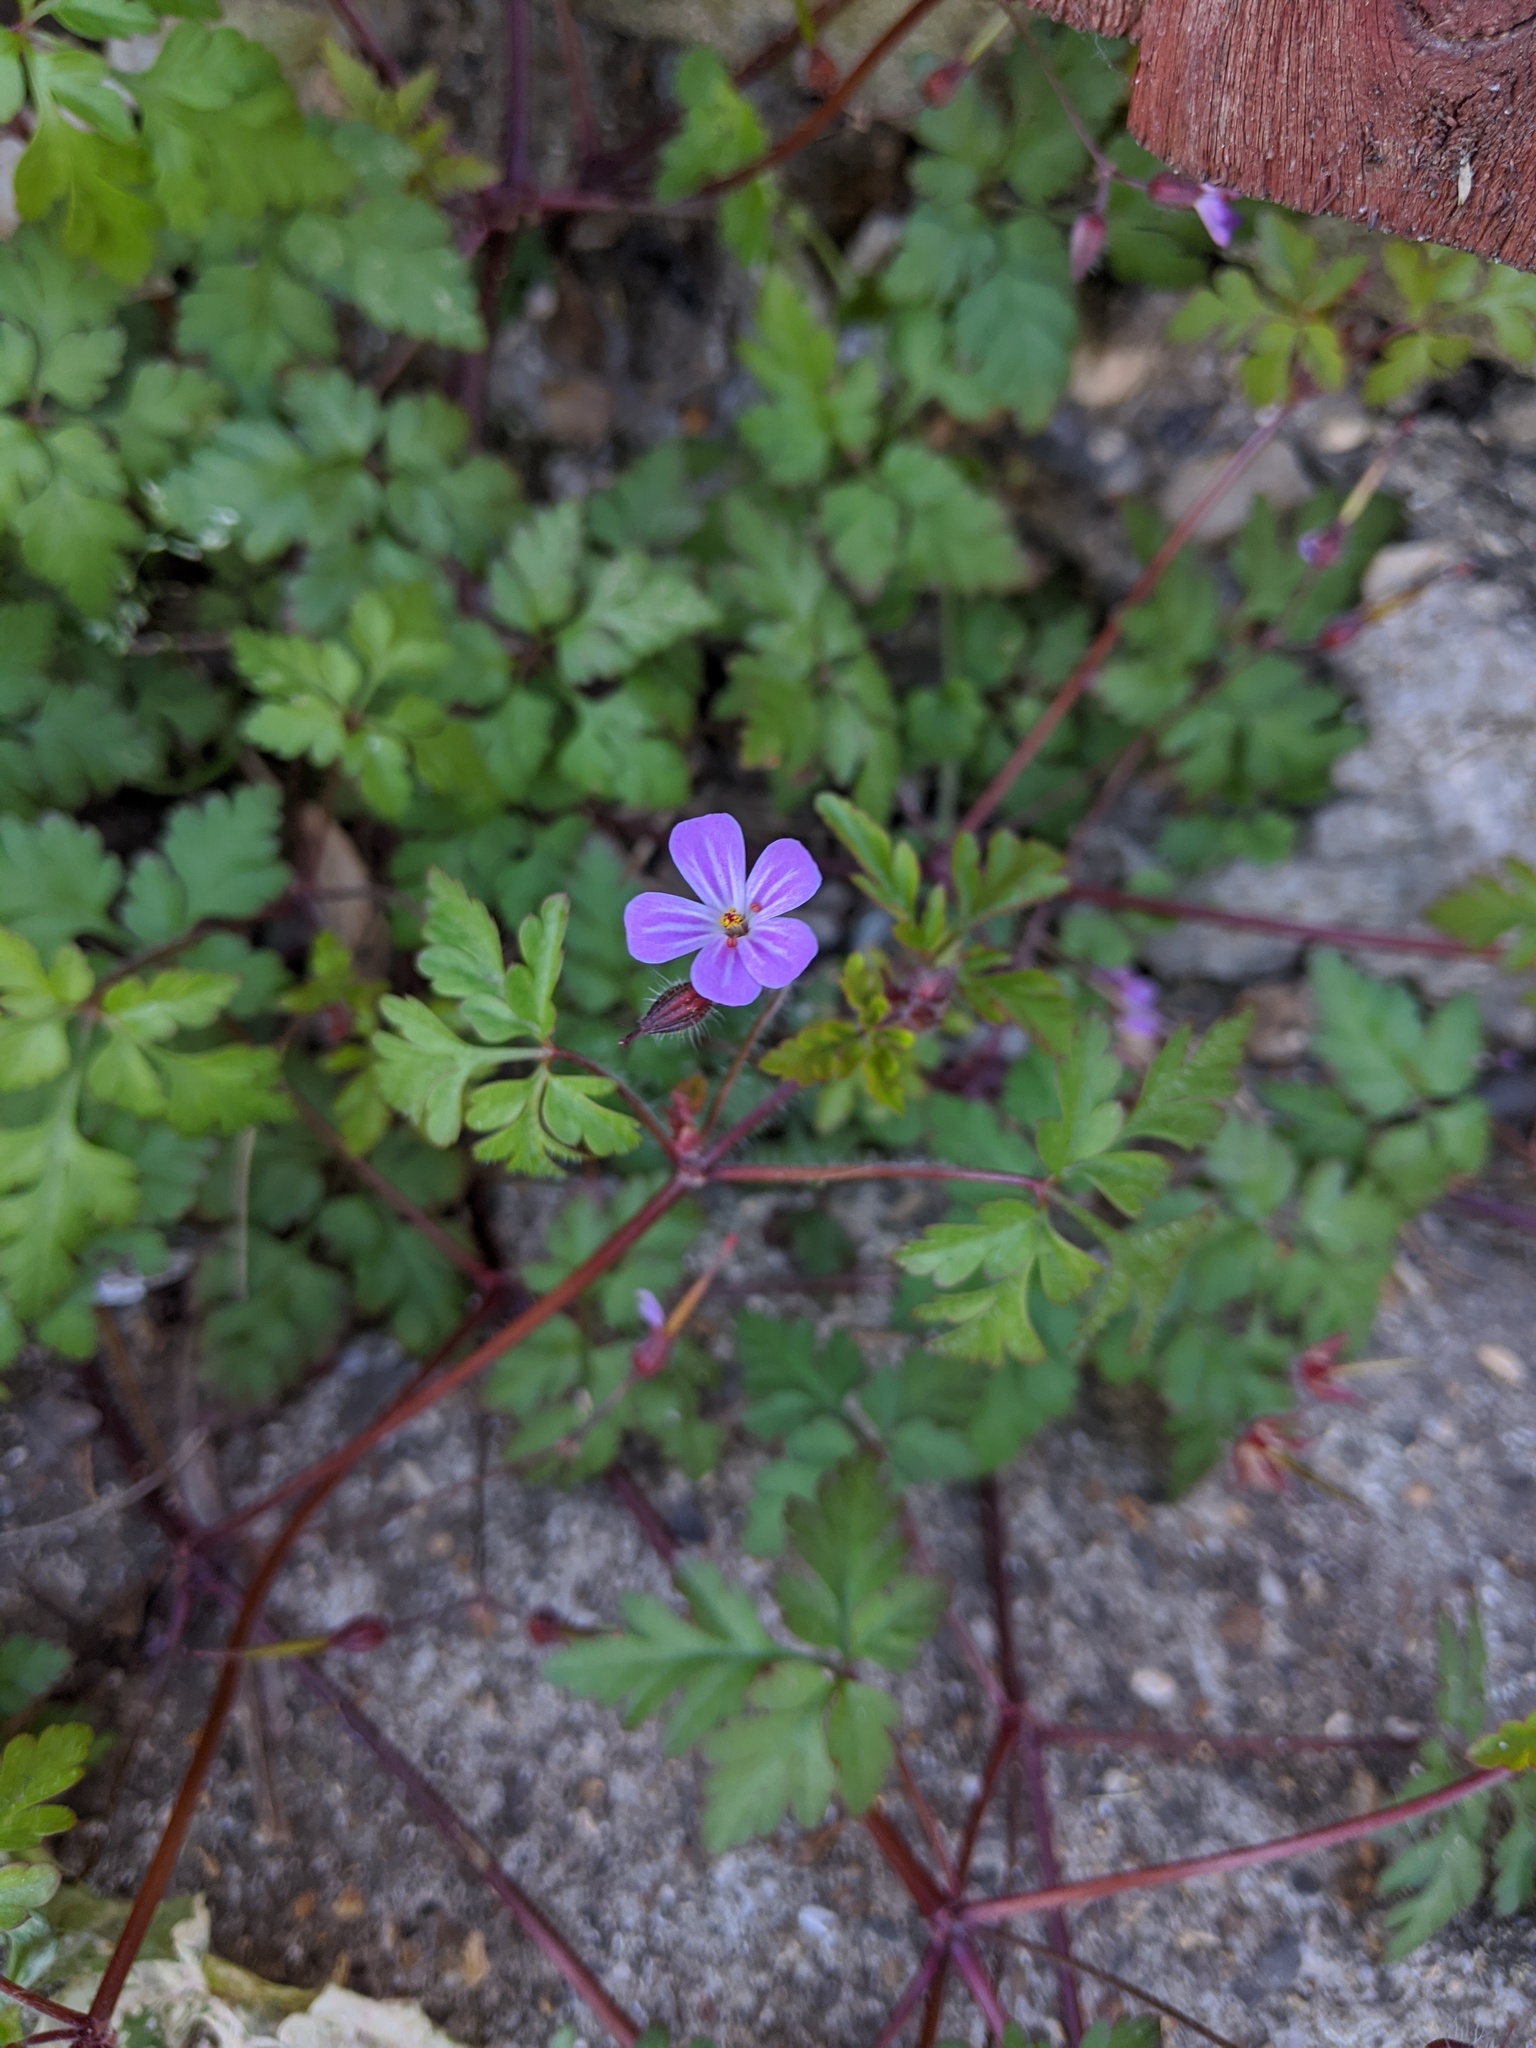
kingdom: Plantae
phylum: Tracheophyta
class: Magnoliopsida
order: Geraniales
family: Geraniaceae
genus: Geranium
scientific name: Geranium robertianum
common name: Herb-robert
